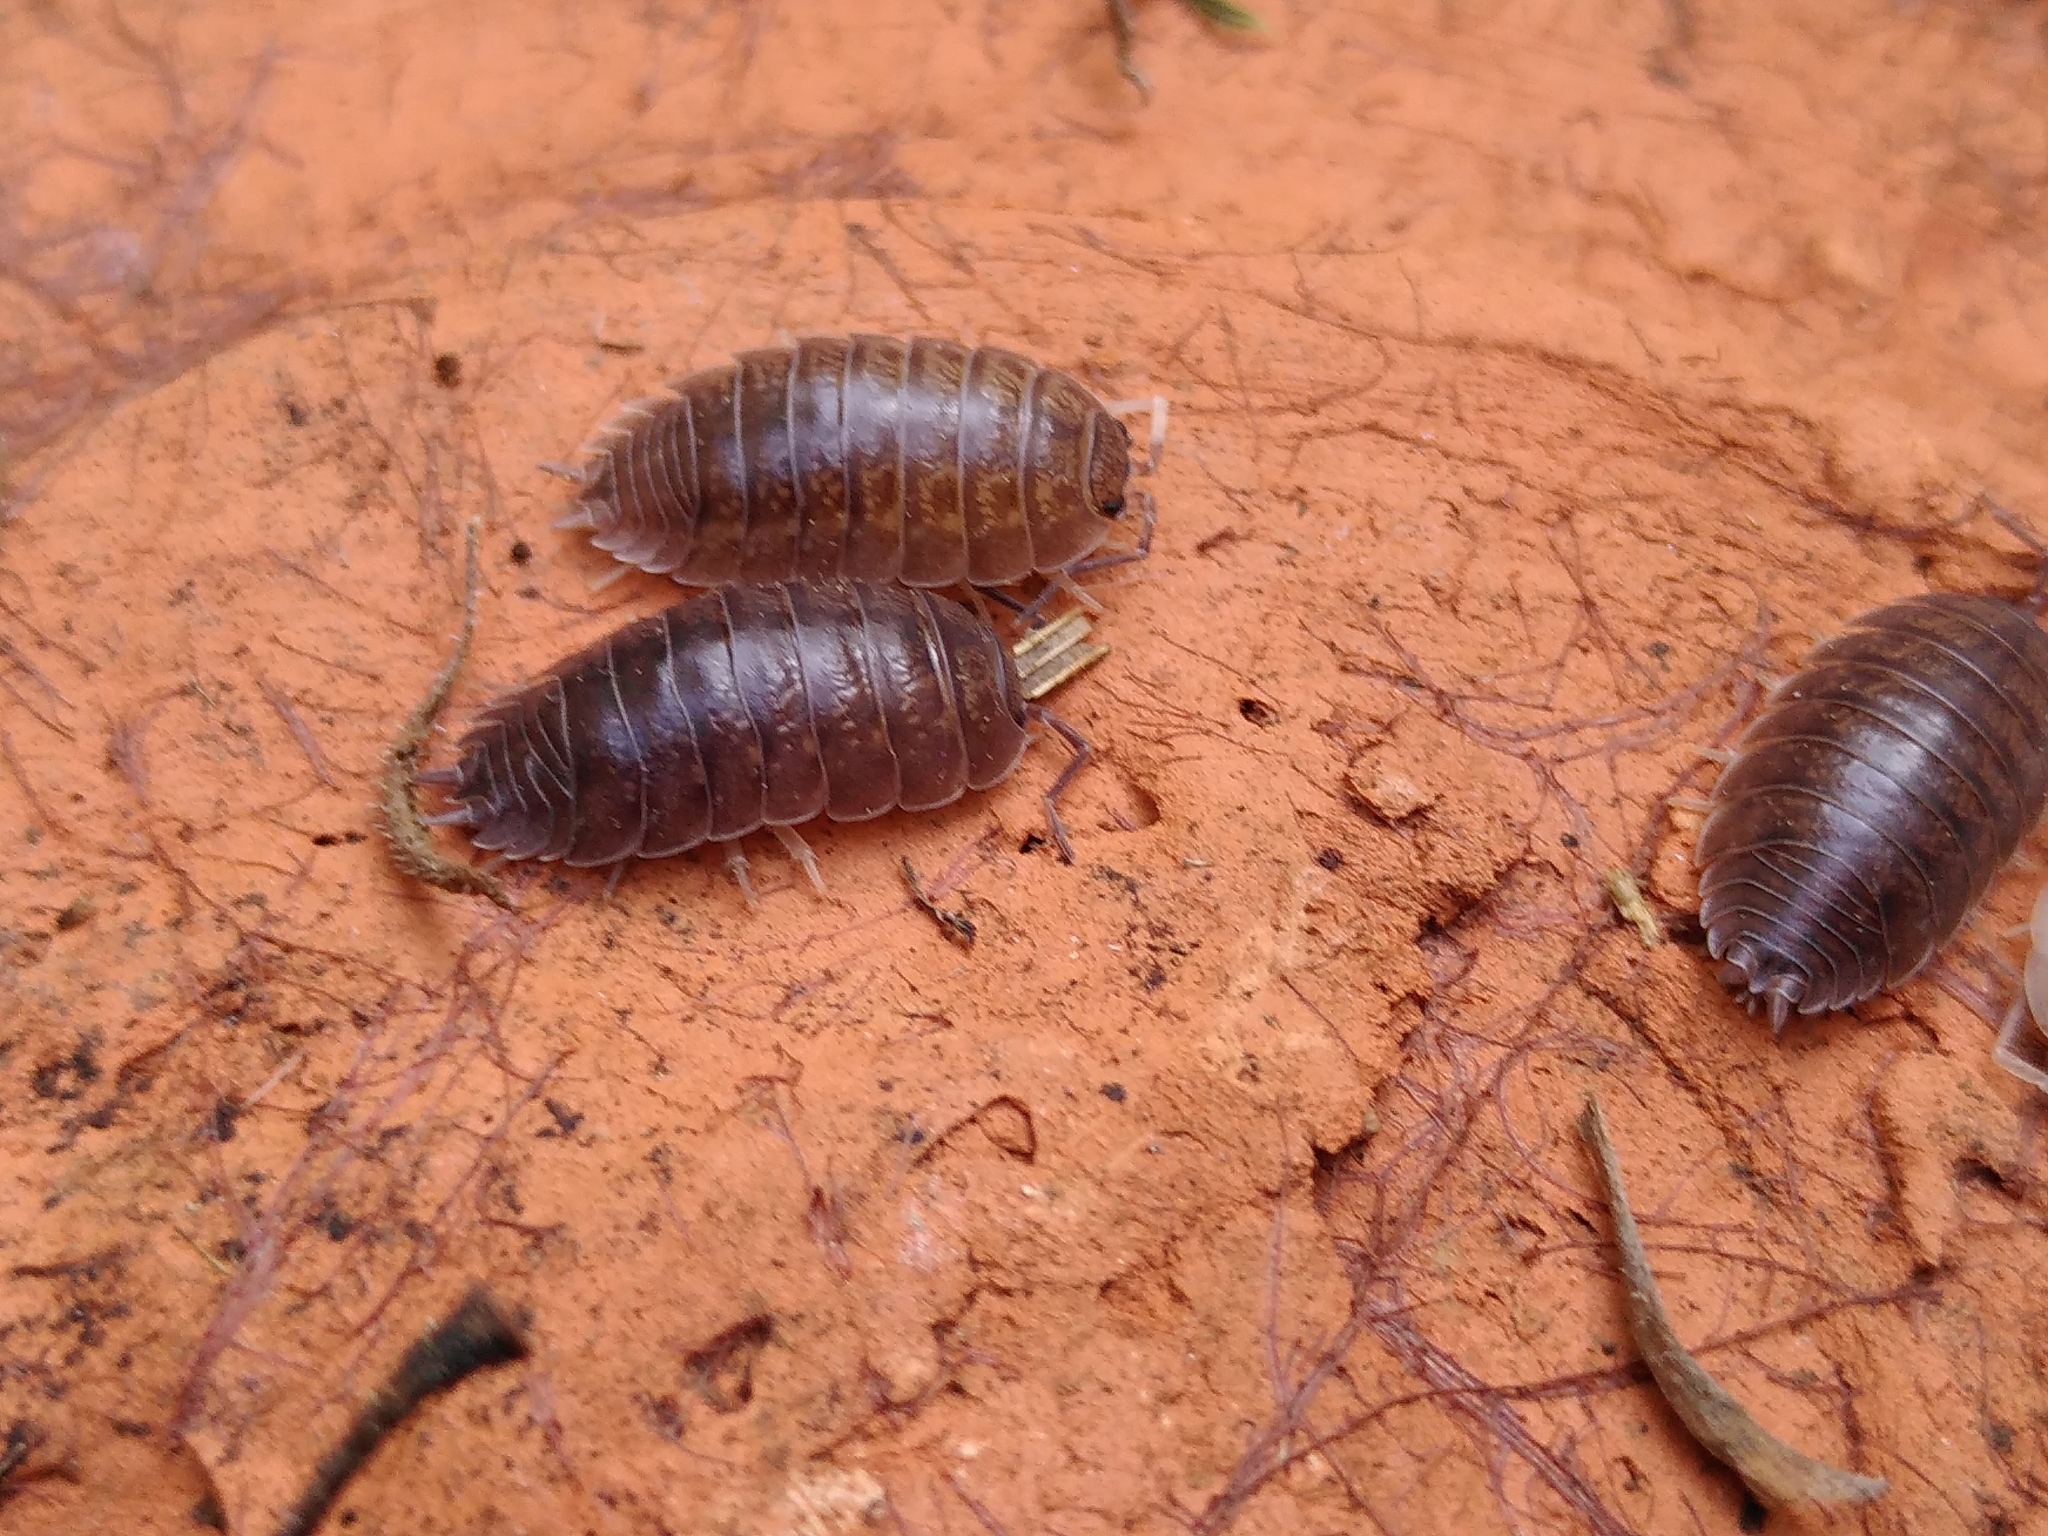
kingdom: Animalia
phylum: Arthropoda
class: Malacostraca
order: Isopoda
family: Porcellionidae
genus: Porcellio
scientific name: Porcellio laevis
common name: Swift woodlouse
